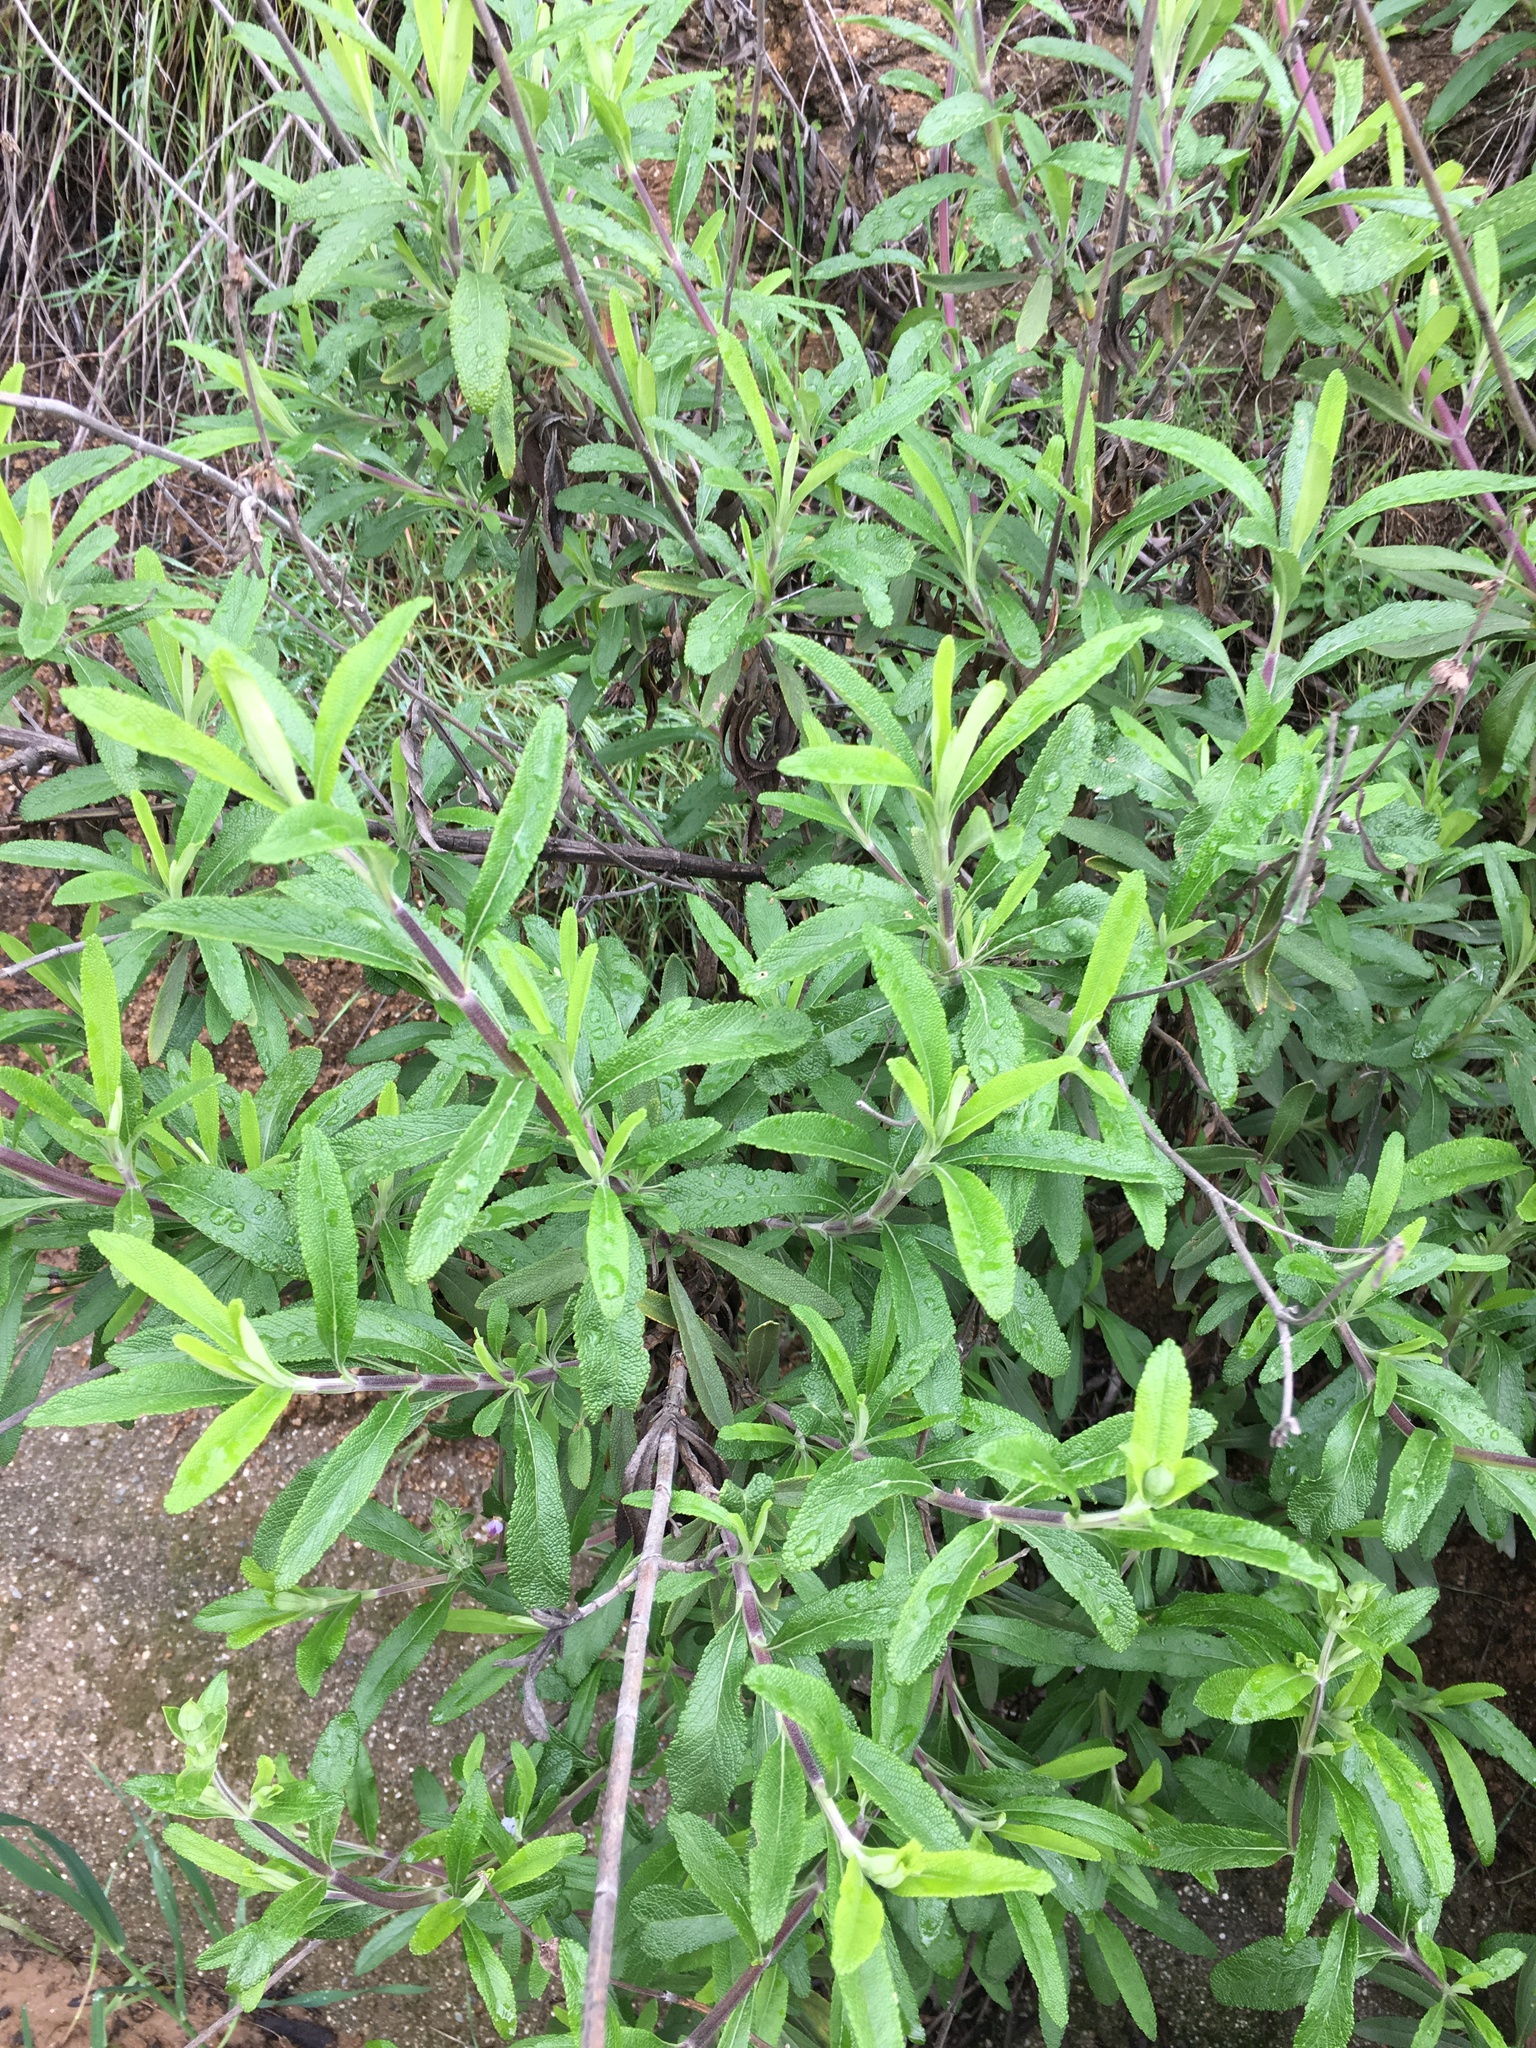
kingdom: Plantae
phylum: Tracheophyta
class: Magnoliopsida
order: Lamiales
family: Lamiaceae
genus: Salvia
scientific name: Salvia mellifera
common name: Black sage
